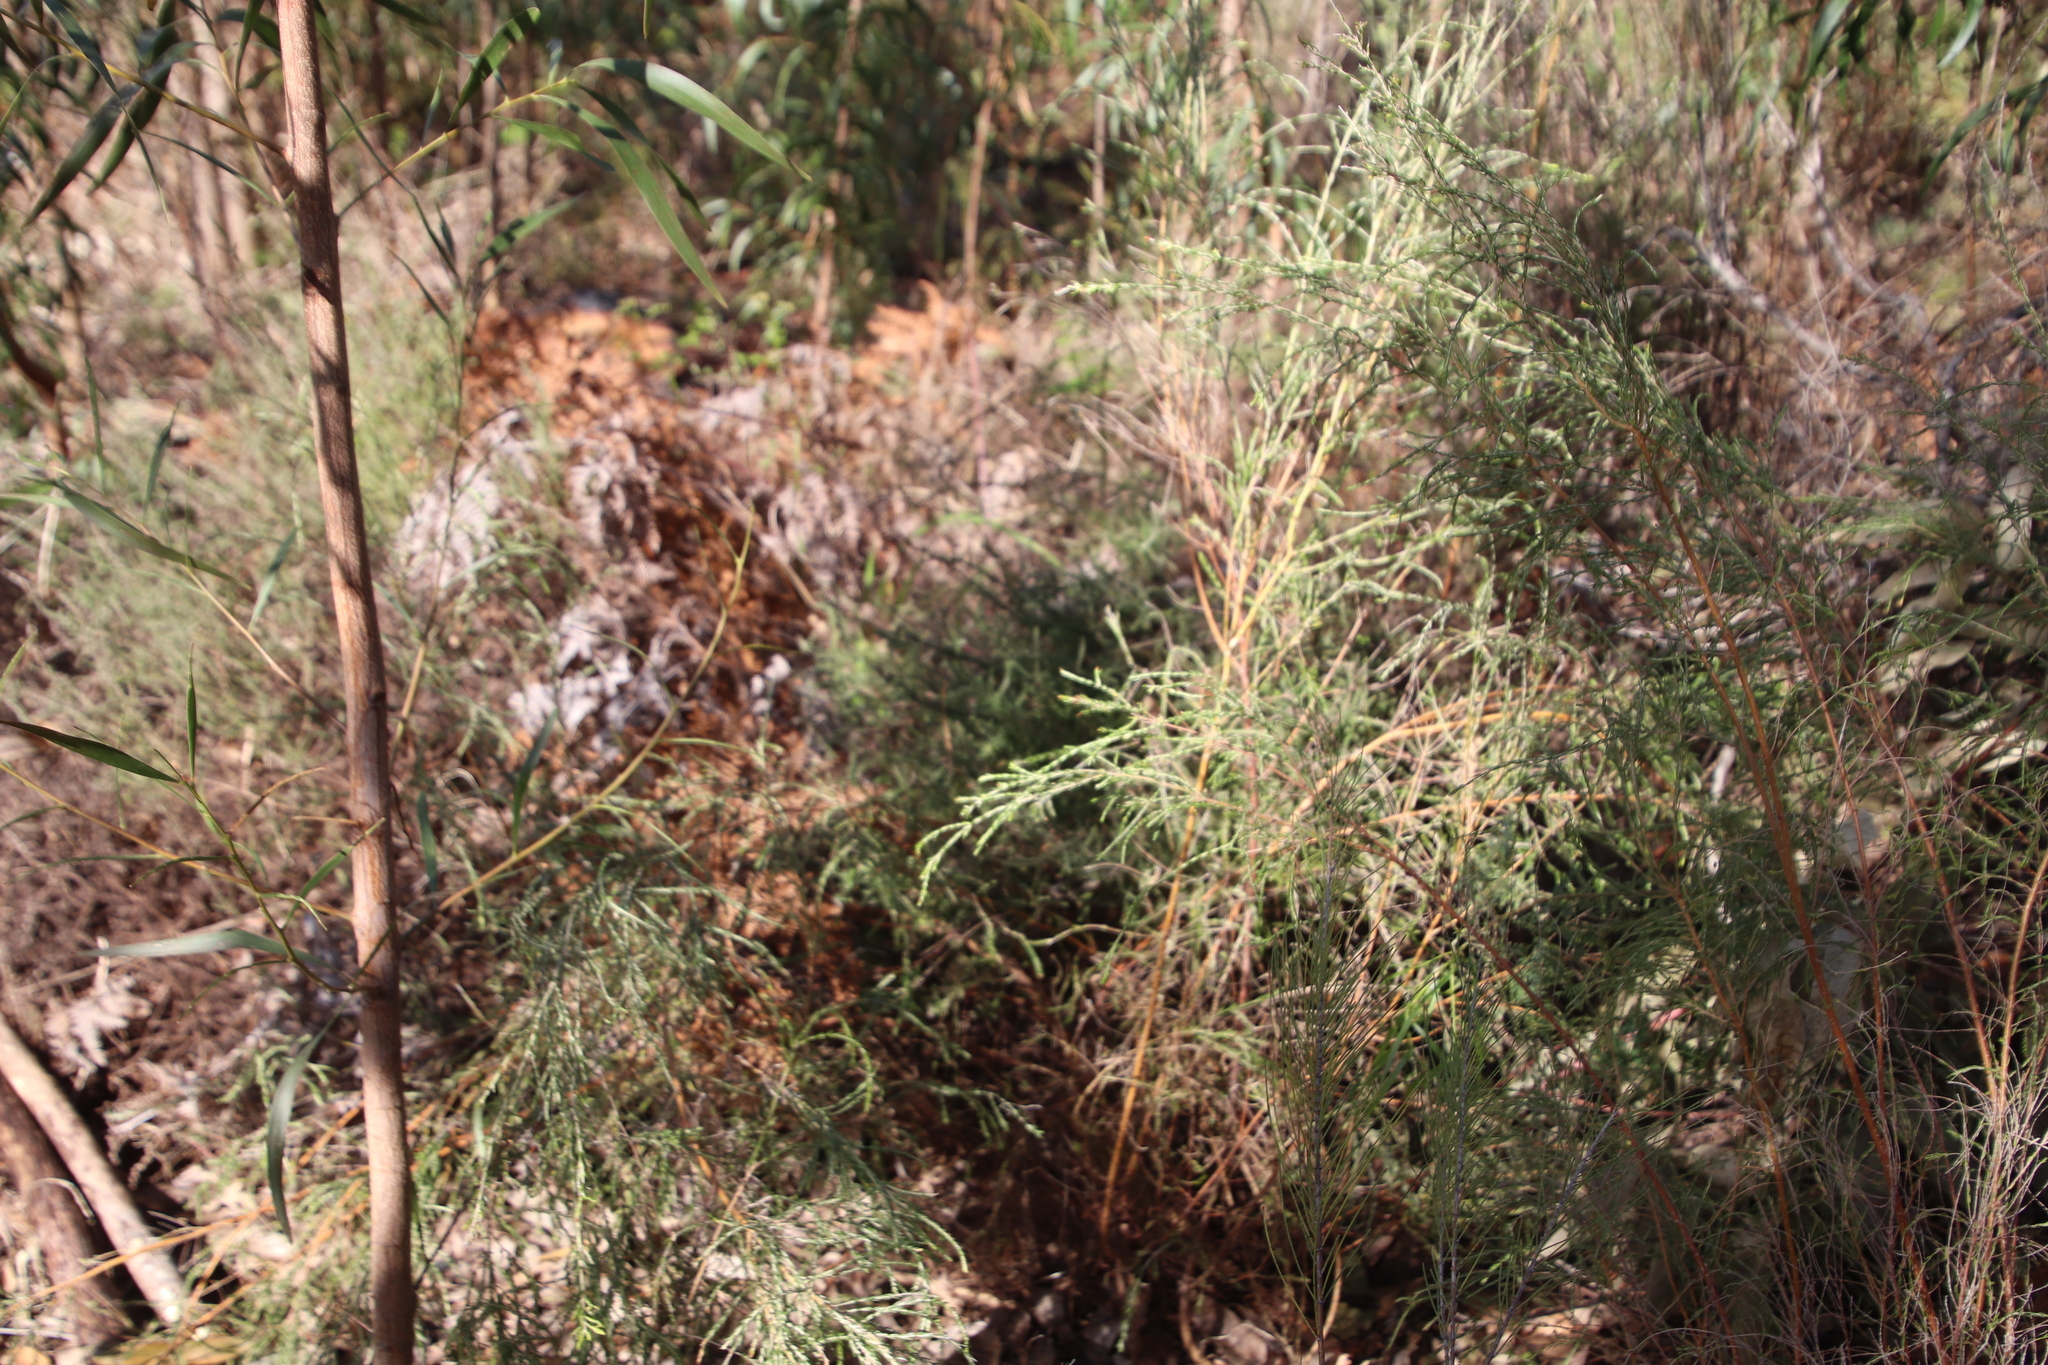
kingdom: Plantae
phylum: Tracheophyta
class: Magnoliopsida
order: Malvales
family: Thymelaeaceae
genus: Passerina
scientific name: Passerina corymbosa
